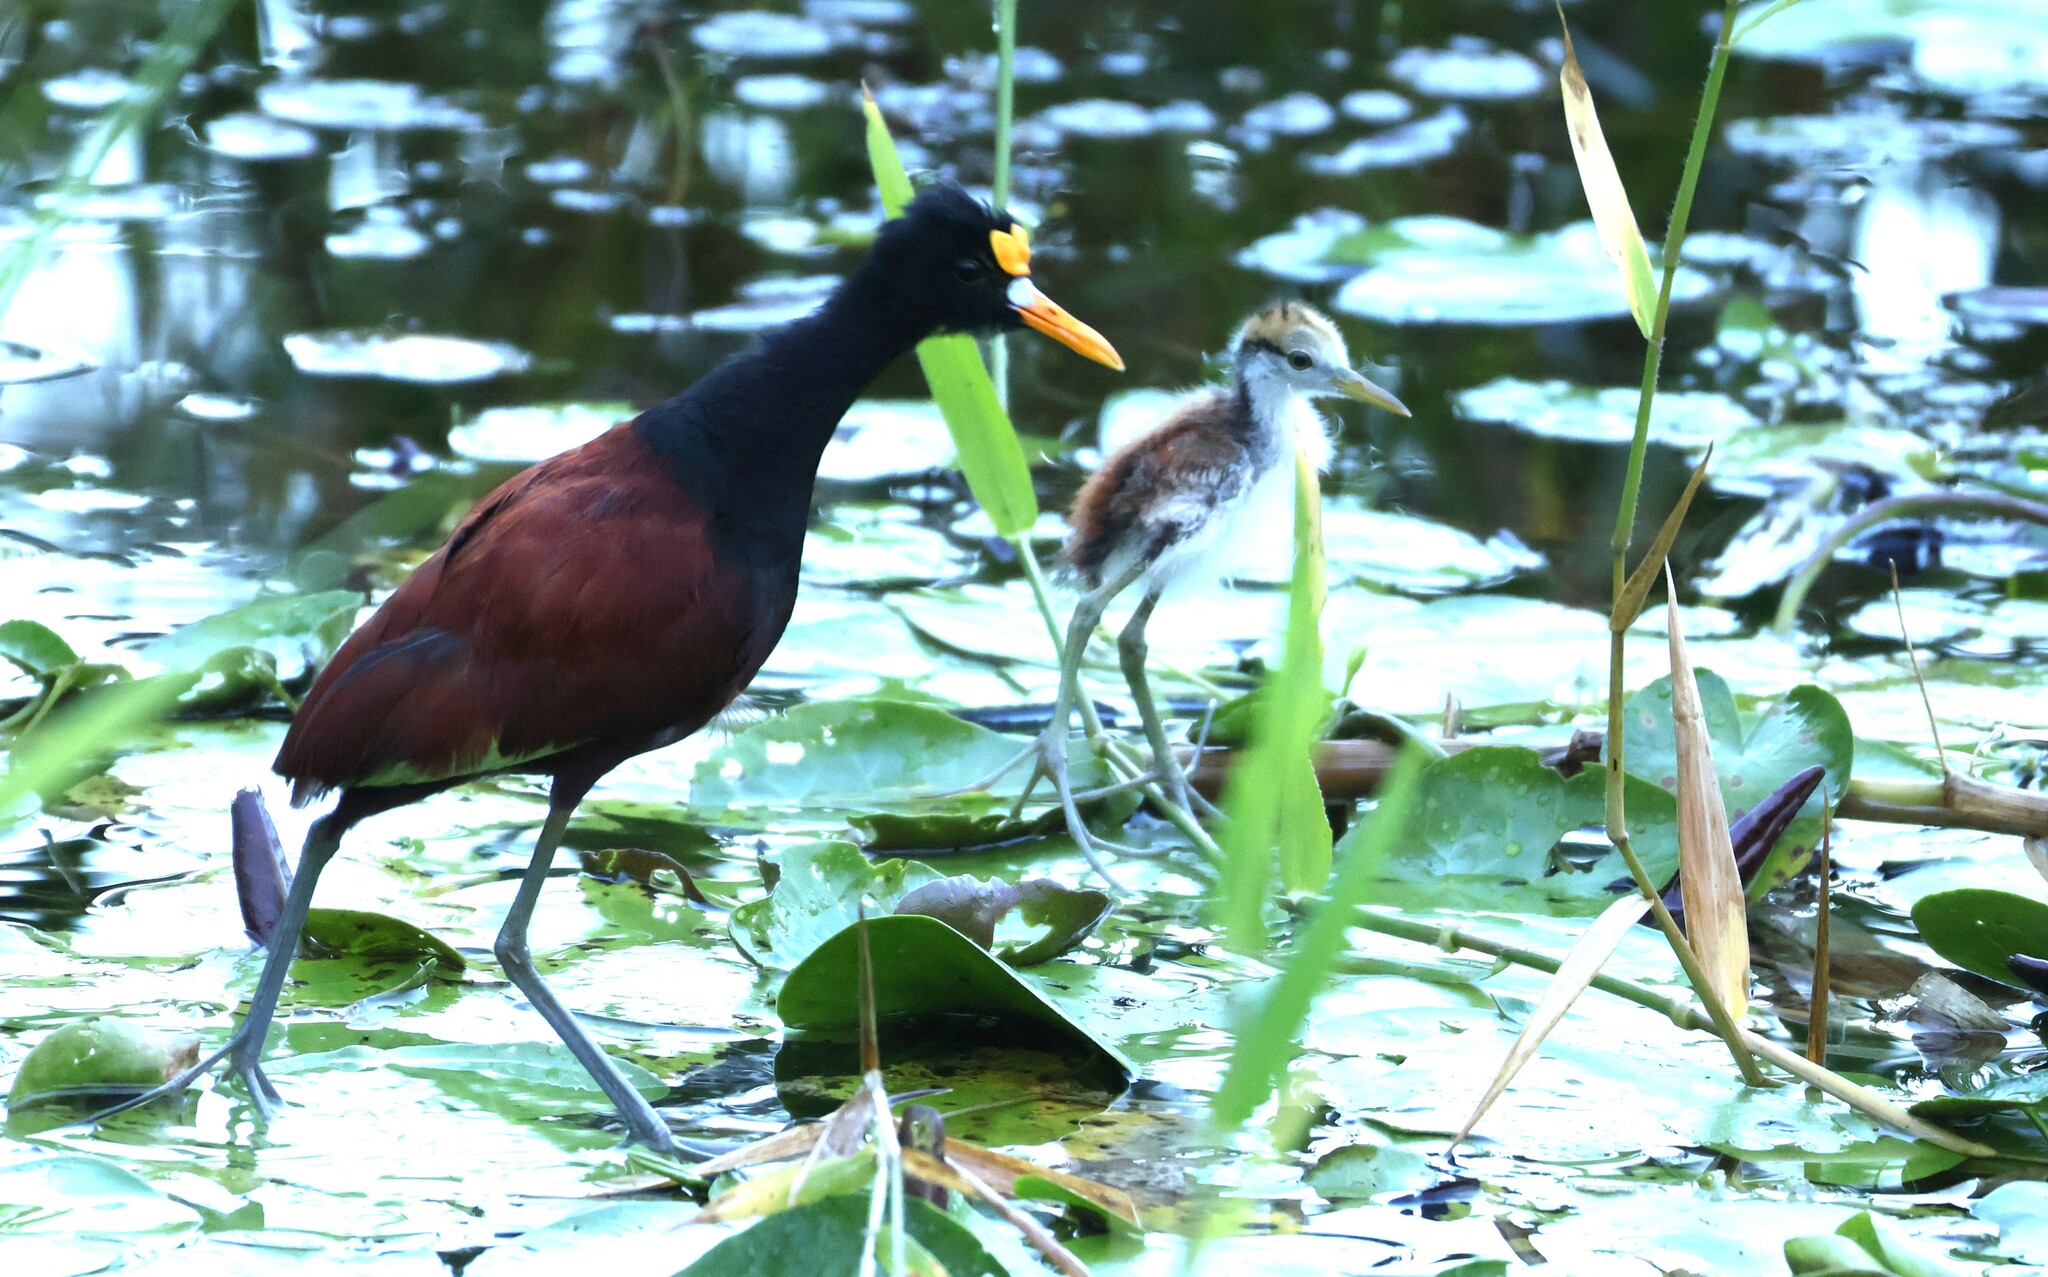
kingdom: Animalia
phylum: Chordata
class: Aves
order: Charadriiformes
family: Jacanidae
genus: Jacana
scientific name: Jacana spinosa
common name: Northern jacana
